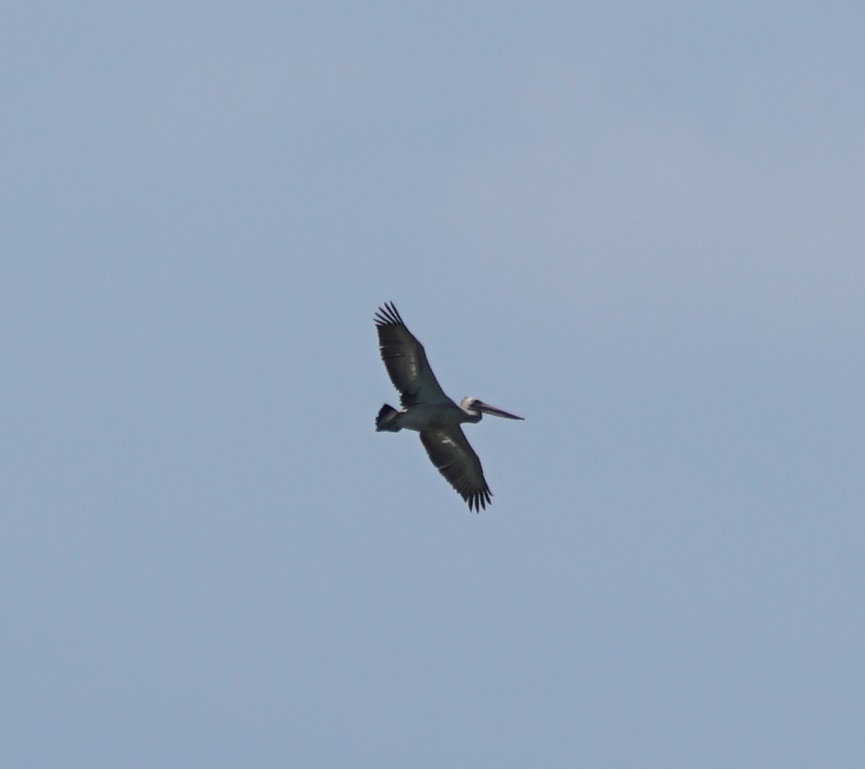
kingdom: Animalia
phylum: Chordata
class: Aves
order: Pelecaniformes
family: Pelecanidae
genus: Pelecanus
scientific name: Pelecanus conspicillatus
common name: Australian pelican
